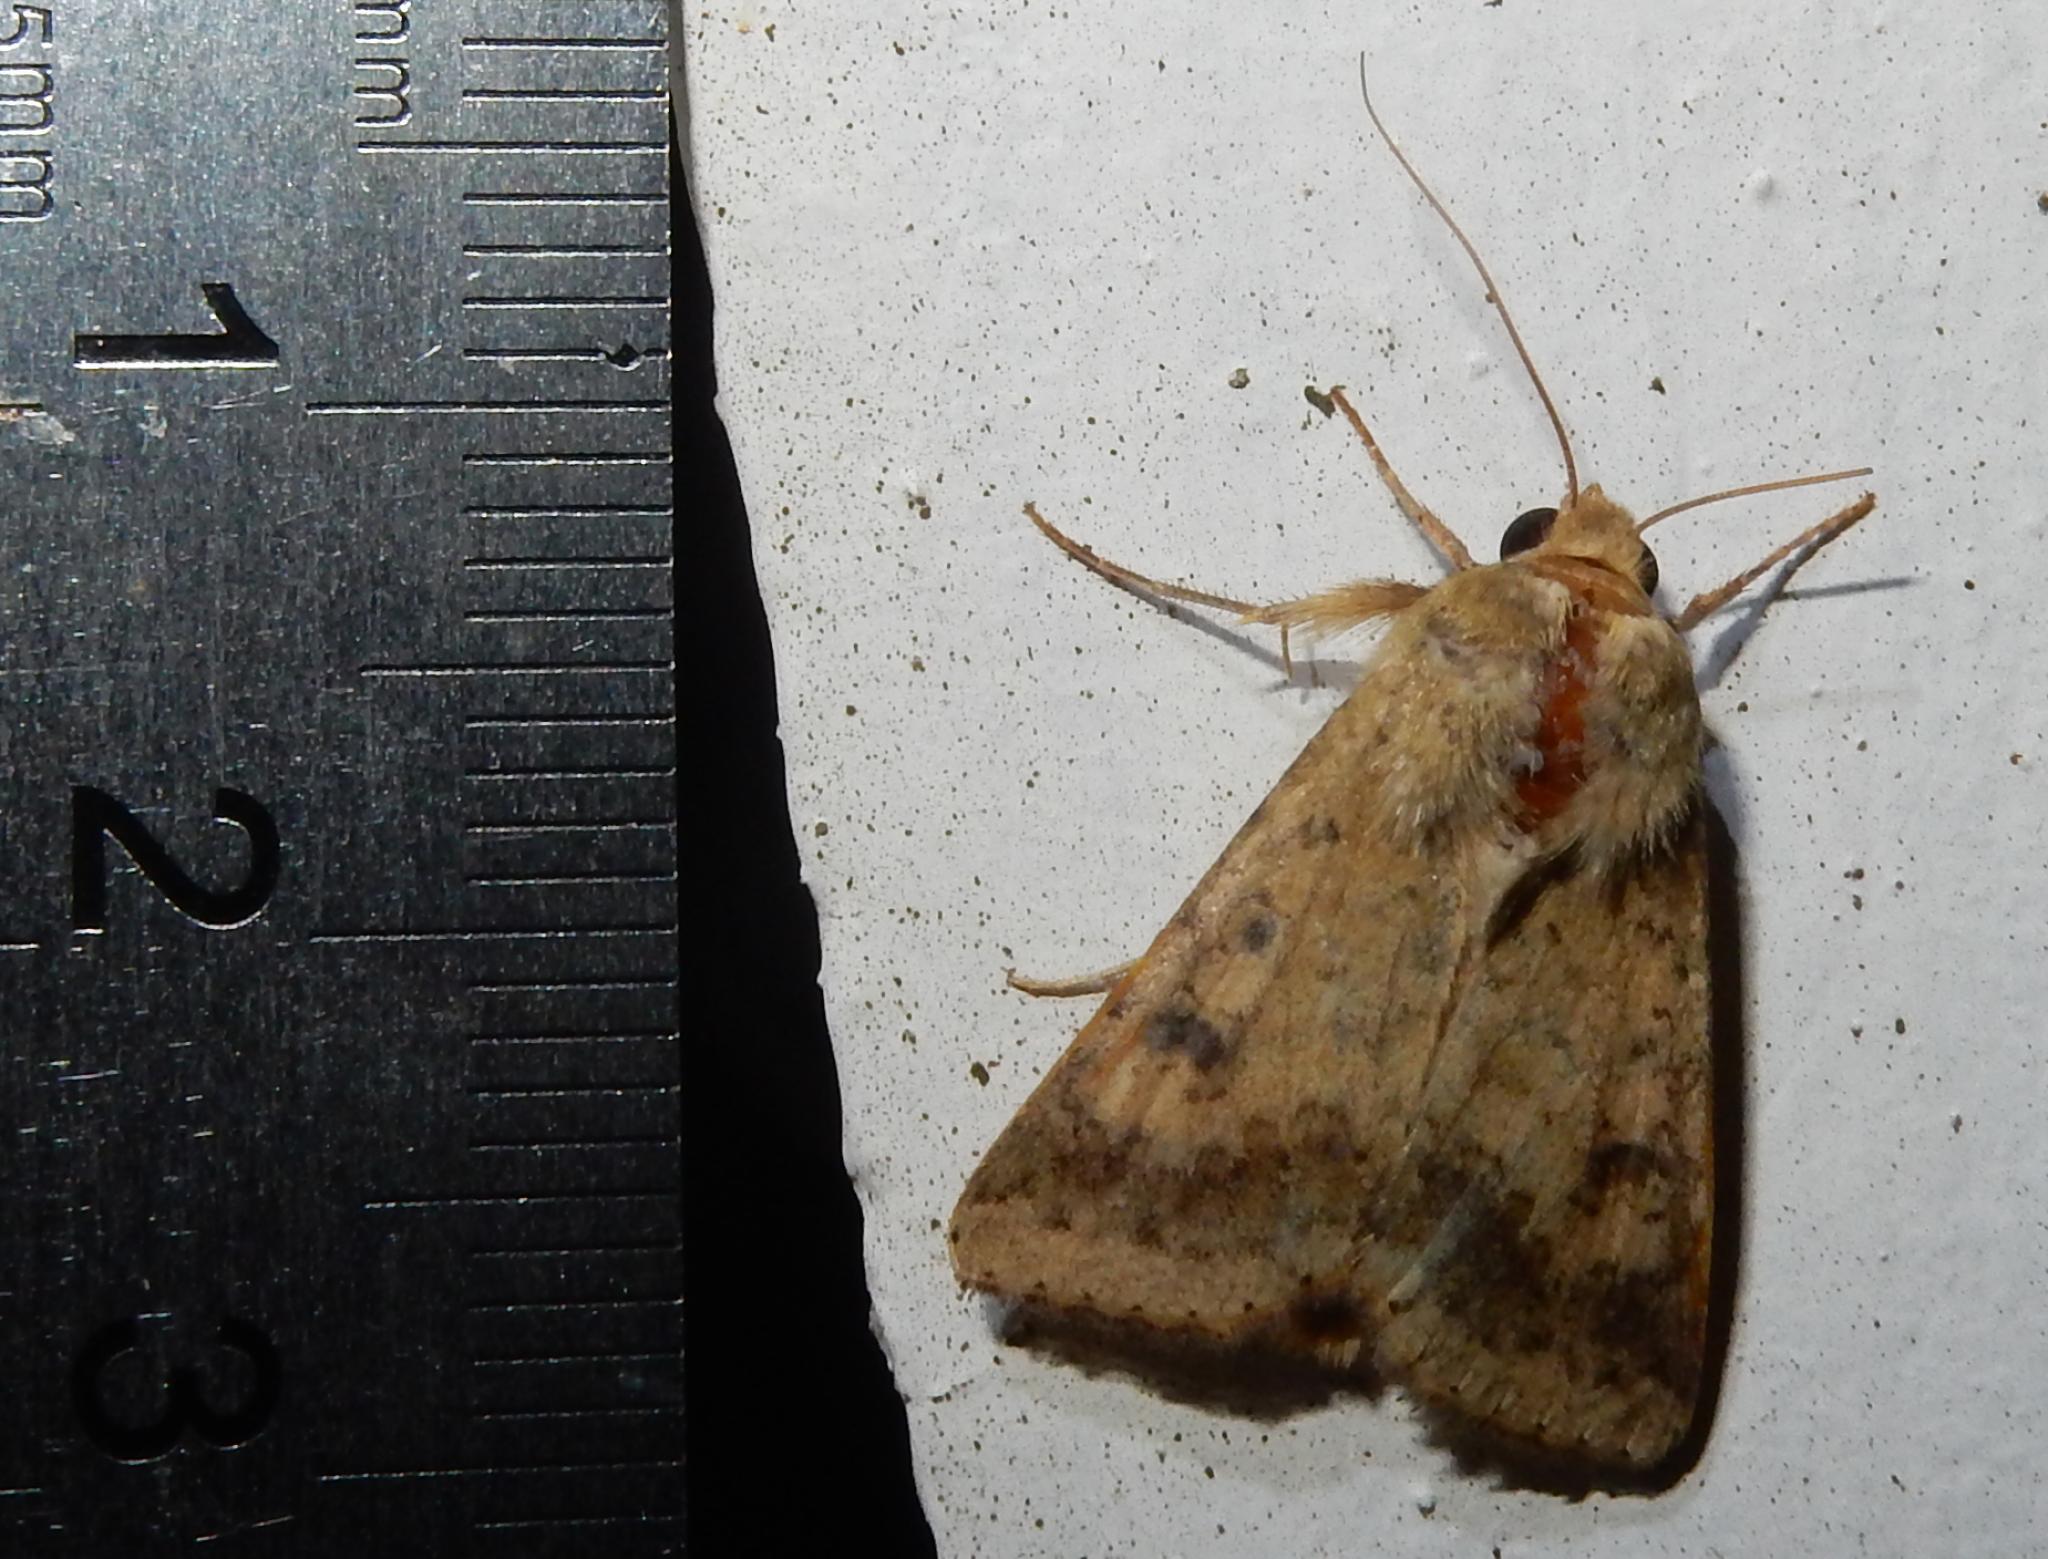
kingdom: Animalia
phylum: Arthropoda
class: Insecta
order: Lepidoptera
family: Noctuidae
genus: Helicoverpa
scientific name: Helicoverpa armigera
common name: Cotton bollworm
